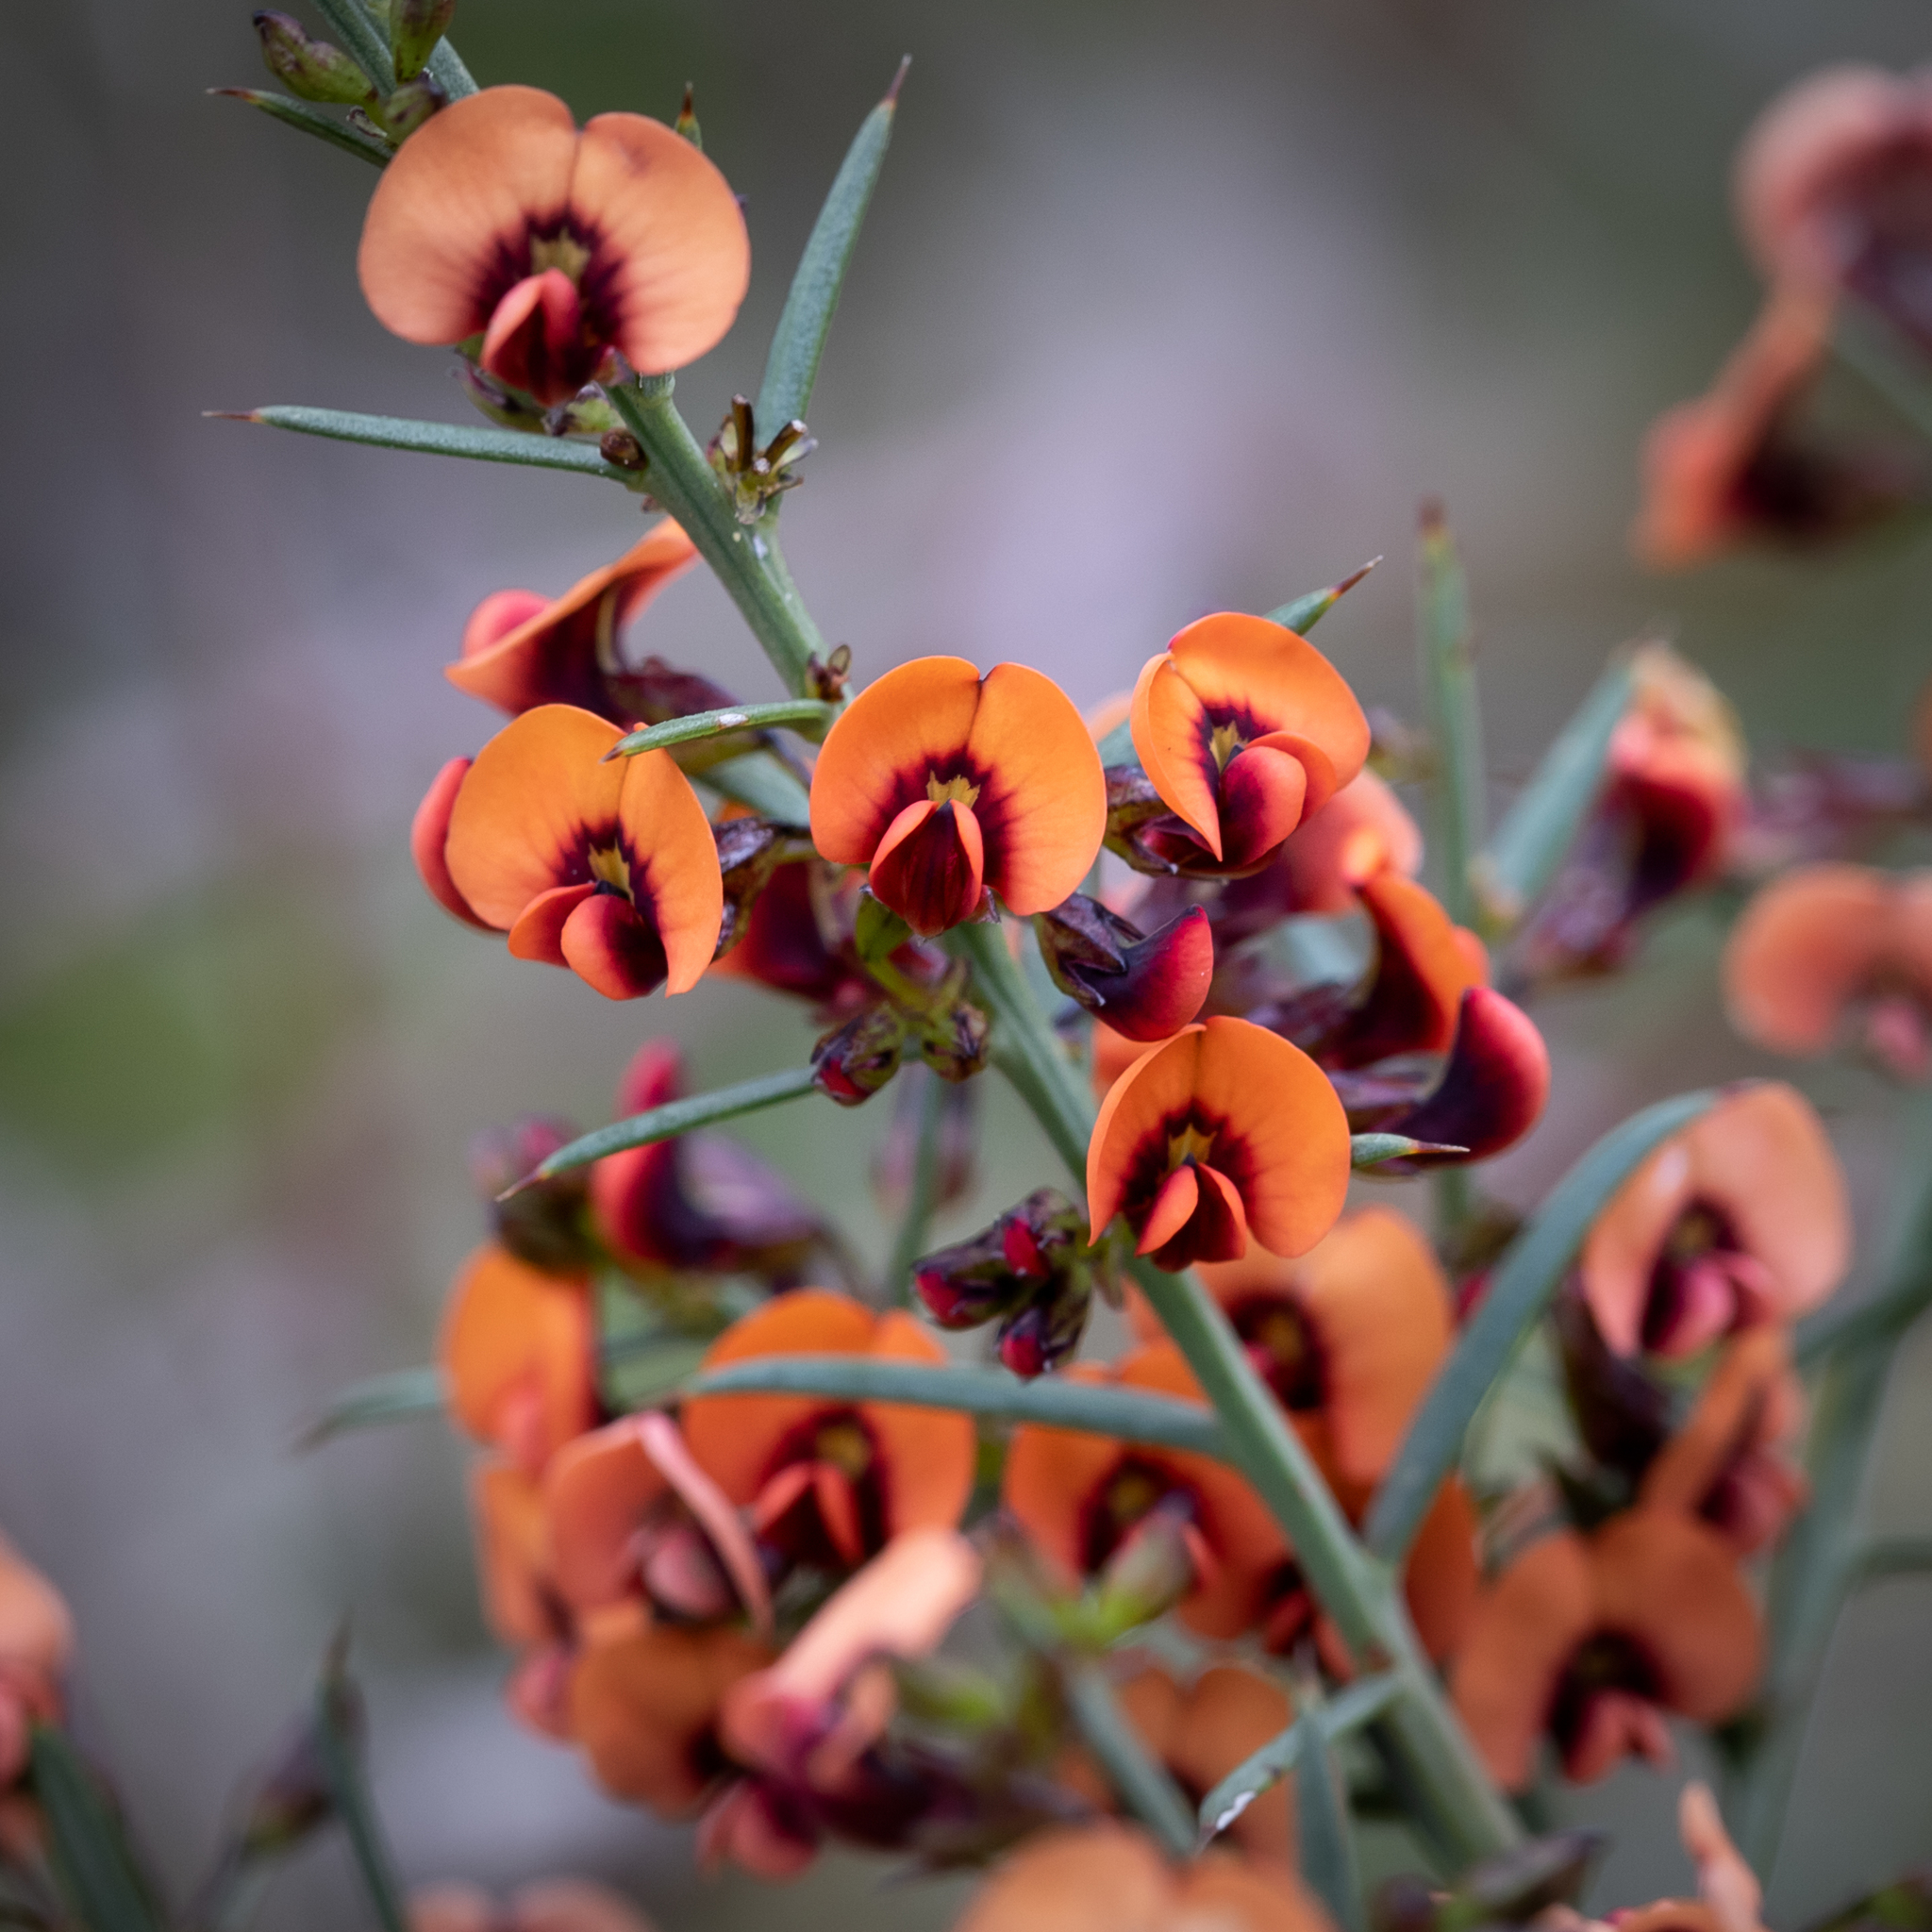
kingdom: Plantae
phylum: Tracheophyta
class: Magnoliopsida
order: Fabales
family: Fabaceae
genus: Daviesia
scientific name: Daviesia ulicifolia
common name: Gorse bitter-pea
